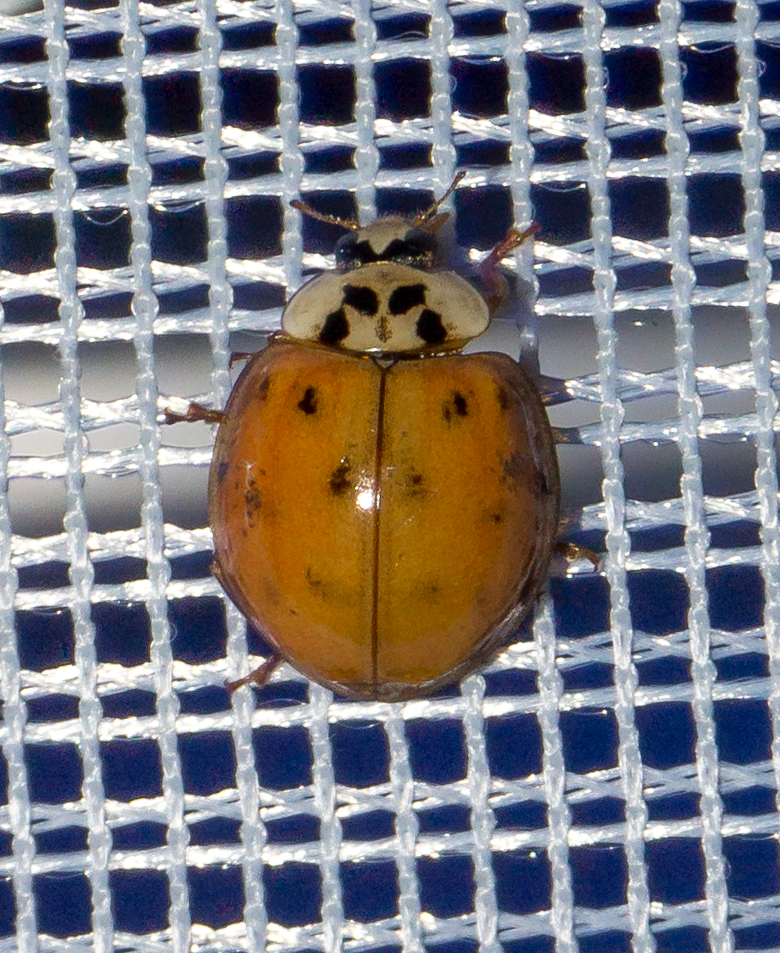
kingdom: Animalia
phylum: Arthropoda
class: Insecta
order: Coleoptera
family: Coccinellidae
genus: Harmonia
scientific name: Harmonia axyridis
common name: Harlequin ladybird
